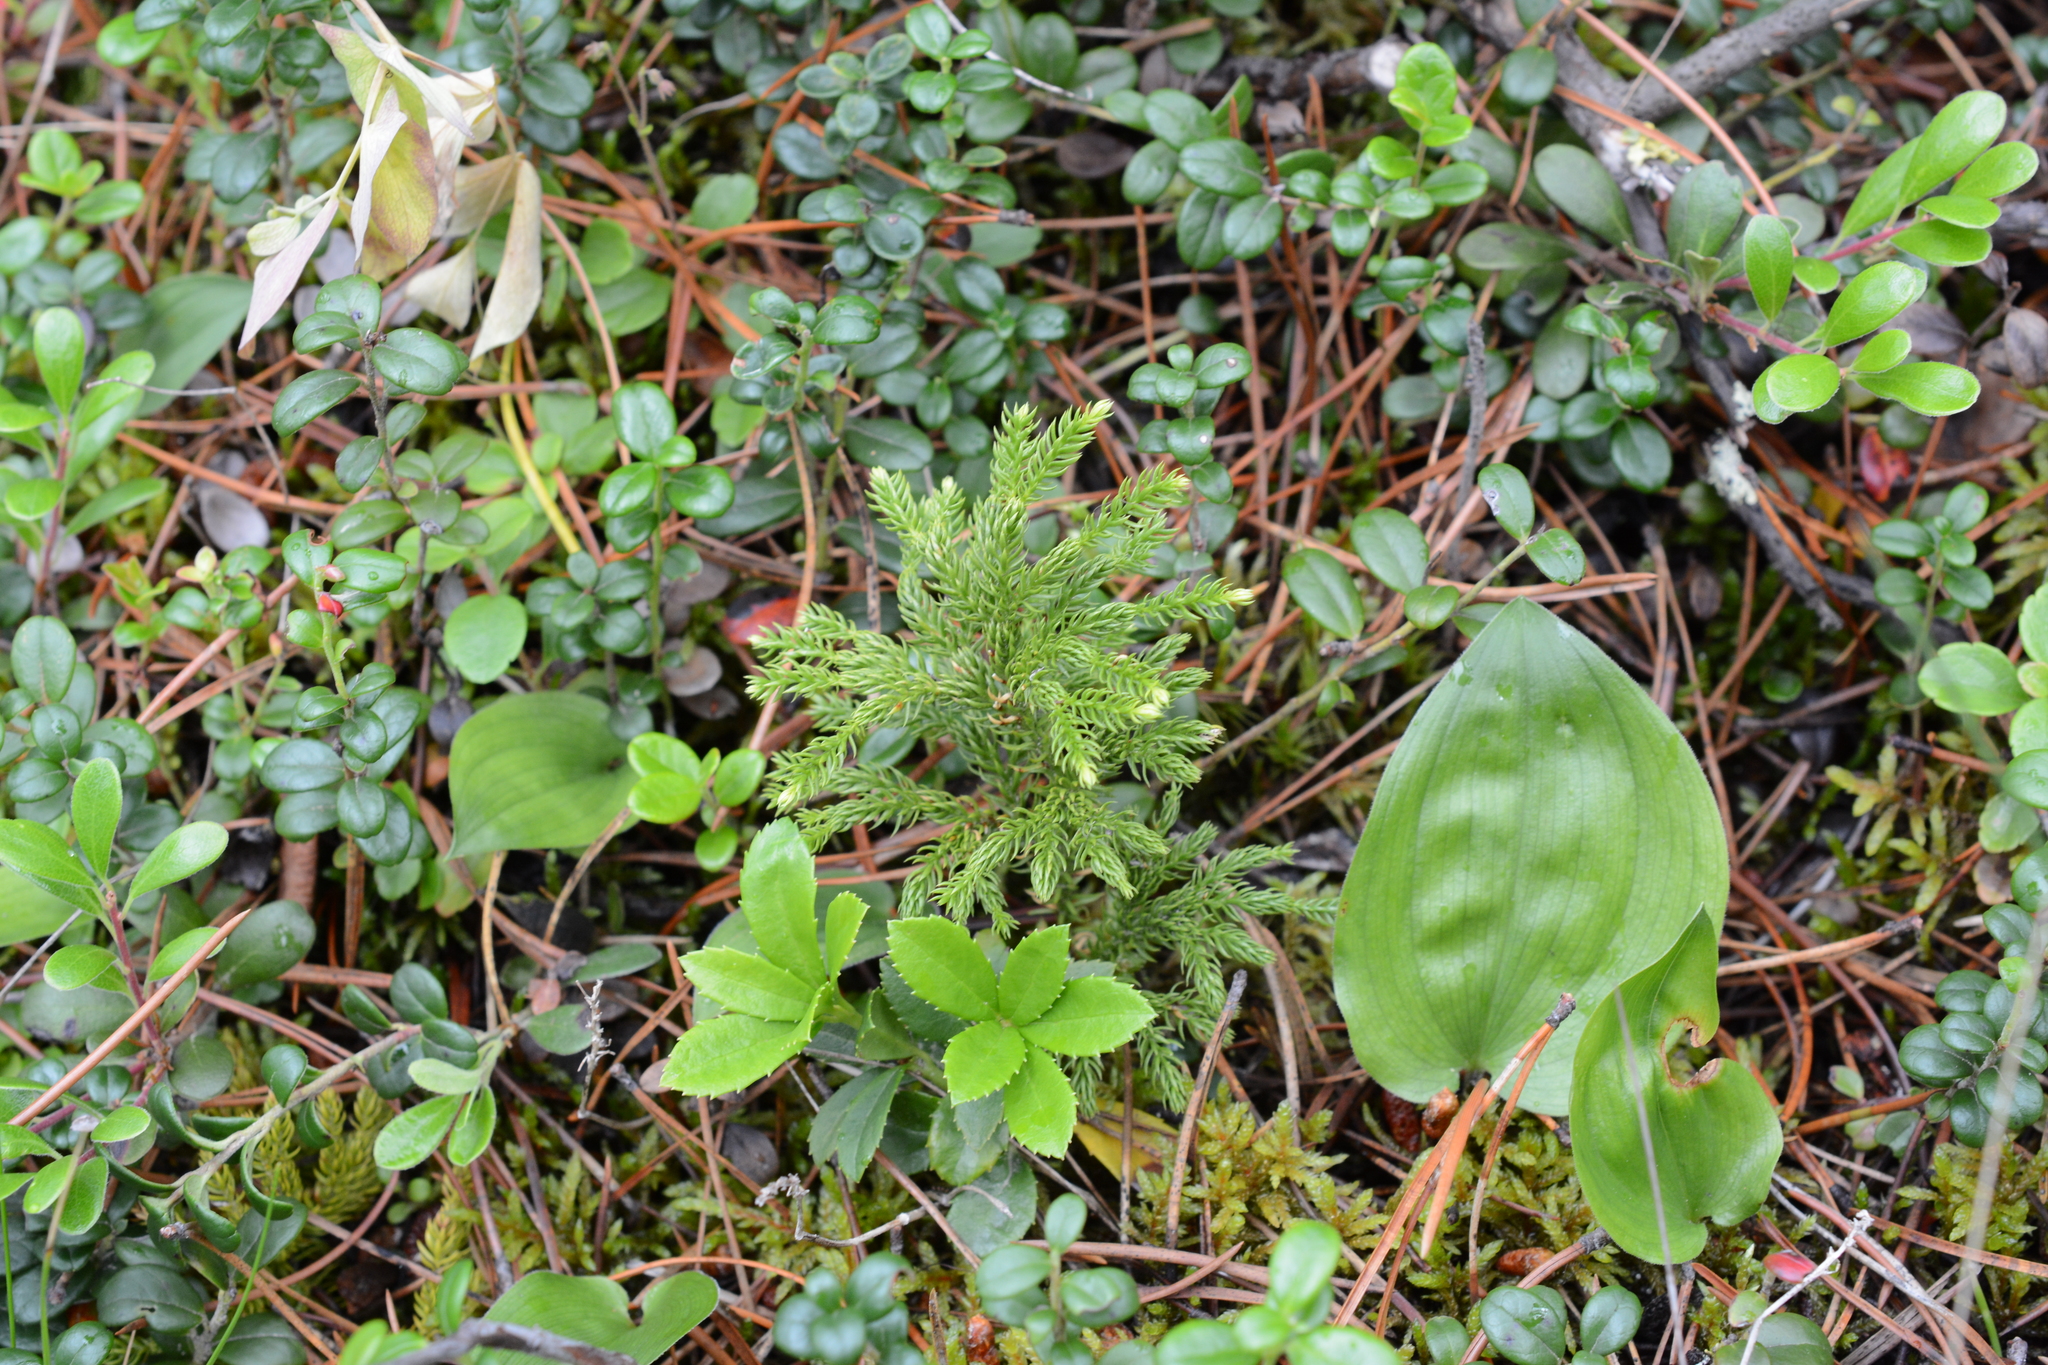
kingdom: Plantae
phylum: Tracheophyta
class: Lycopodiopsida
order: Lycopodiales
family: Lycopodiaceae
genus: Dendrolycopodium
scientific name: Dendrolycopodium dendroideum
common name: Northern tree-clubmoss
